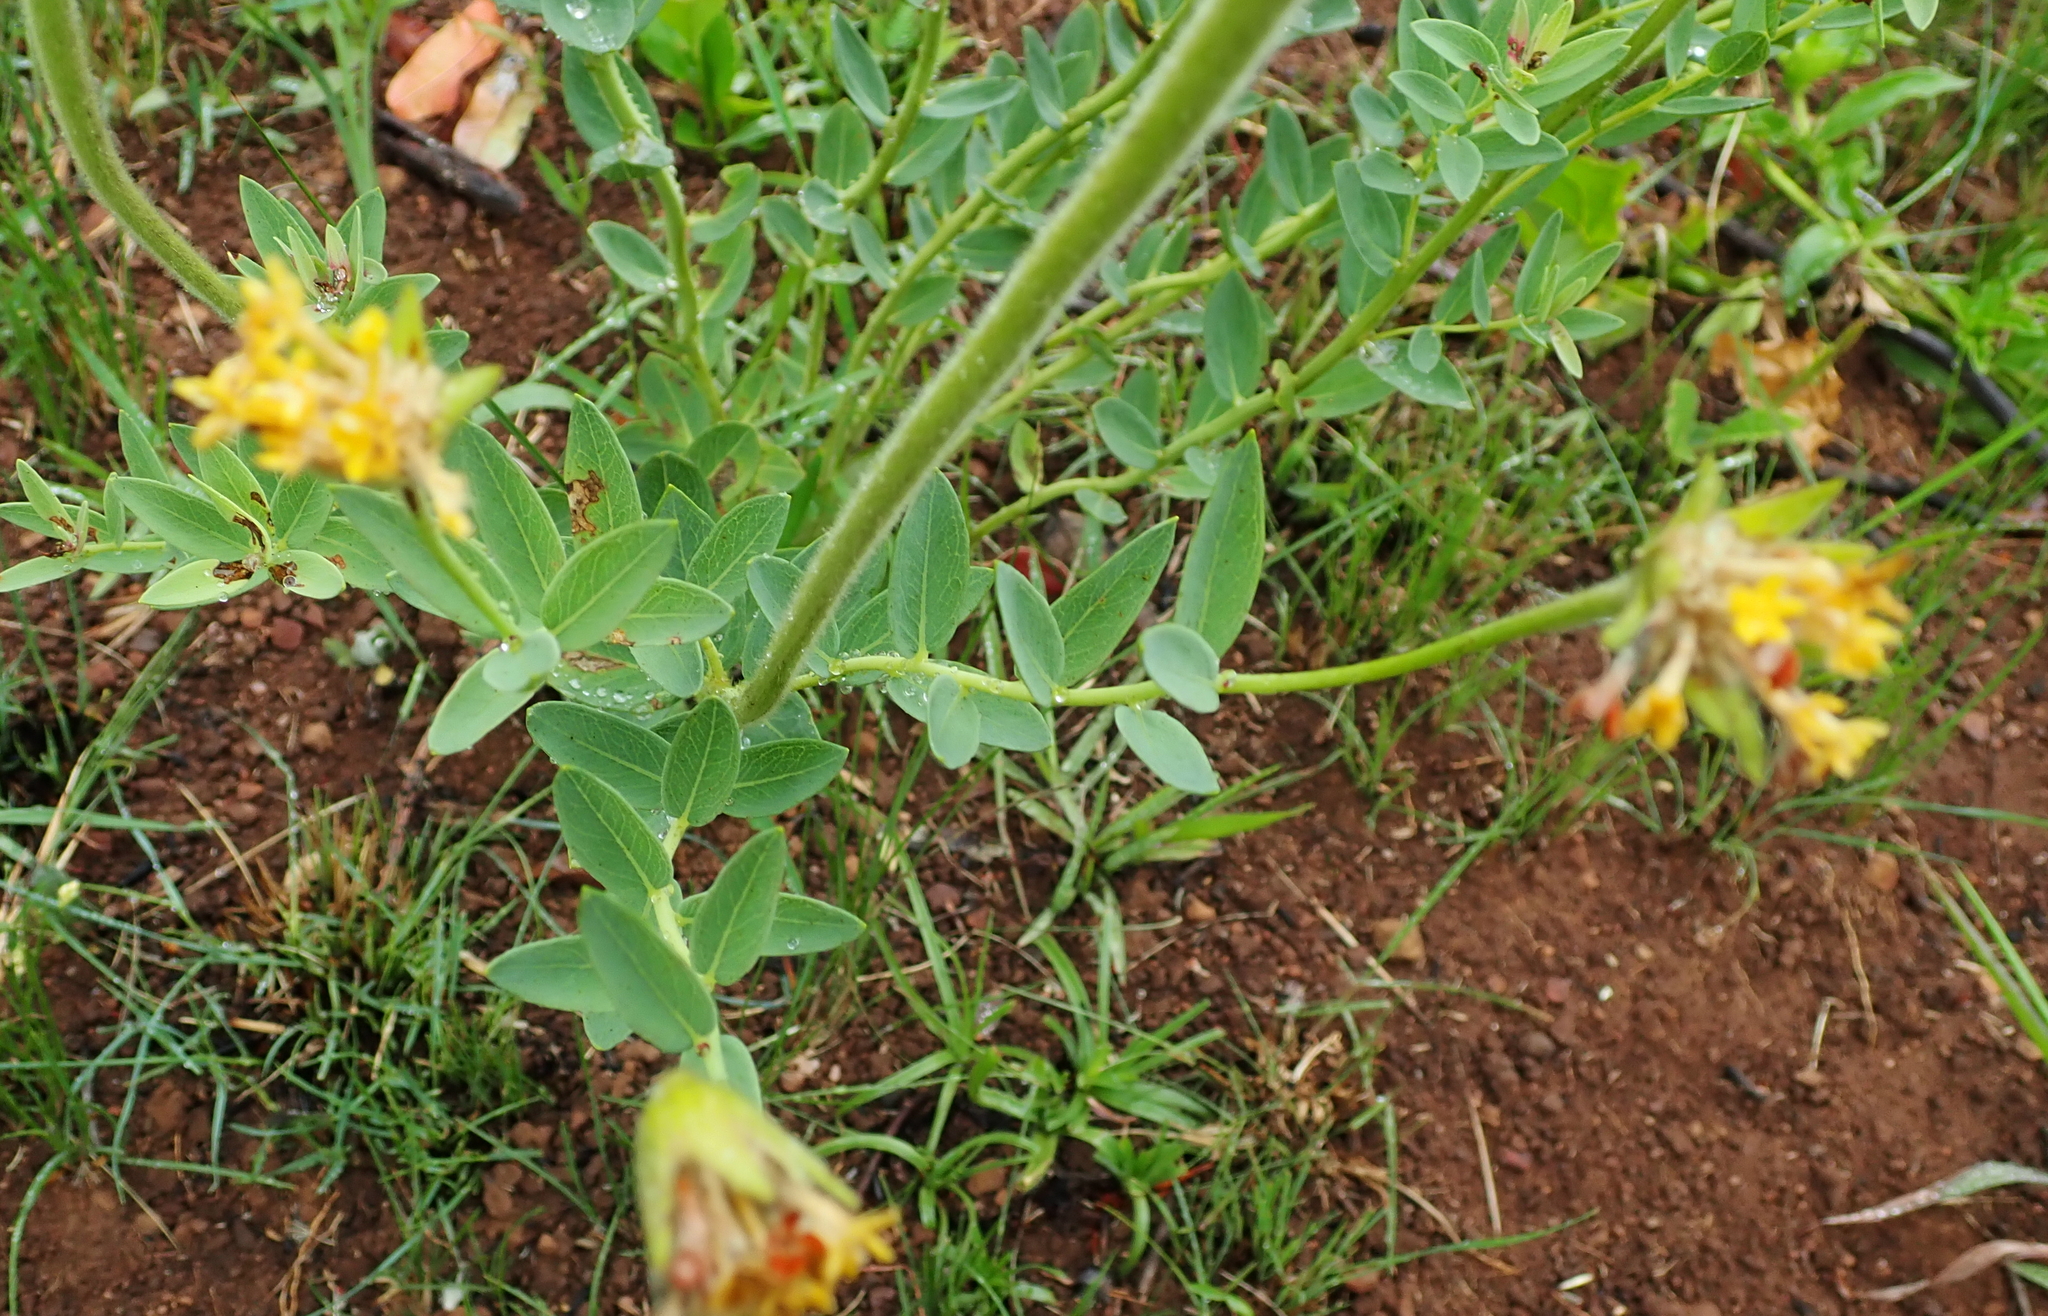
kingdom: Plantae
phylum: Tracheophyta
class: Magnoliopsida
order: Malvales
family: Thymelaeaceae
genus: Gnidia
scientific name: Gnidia kraussiana
